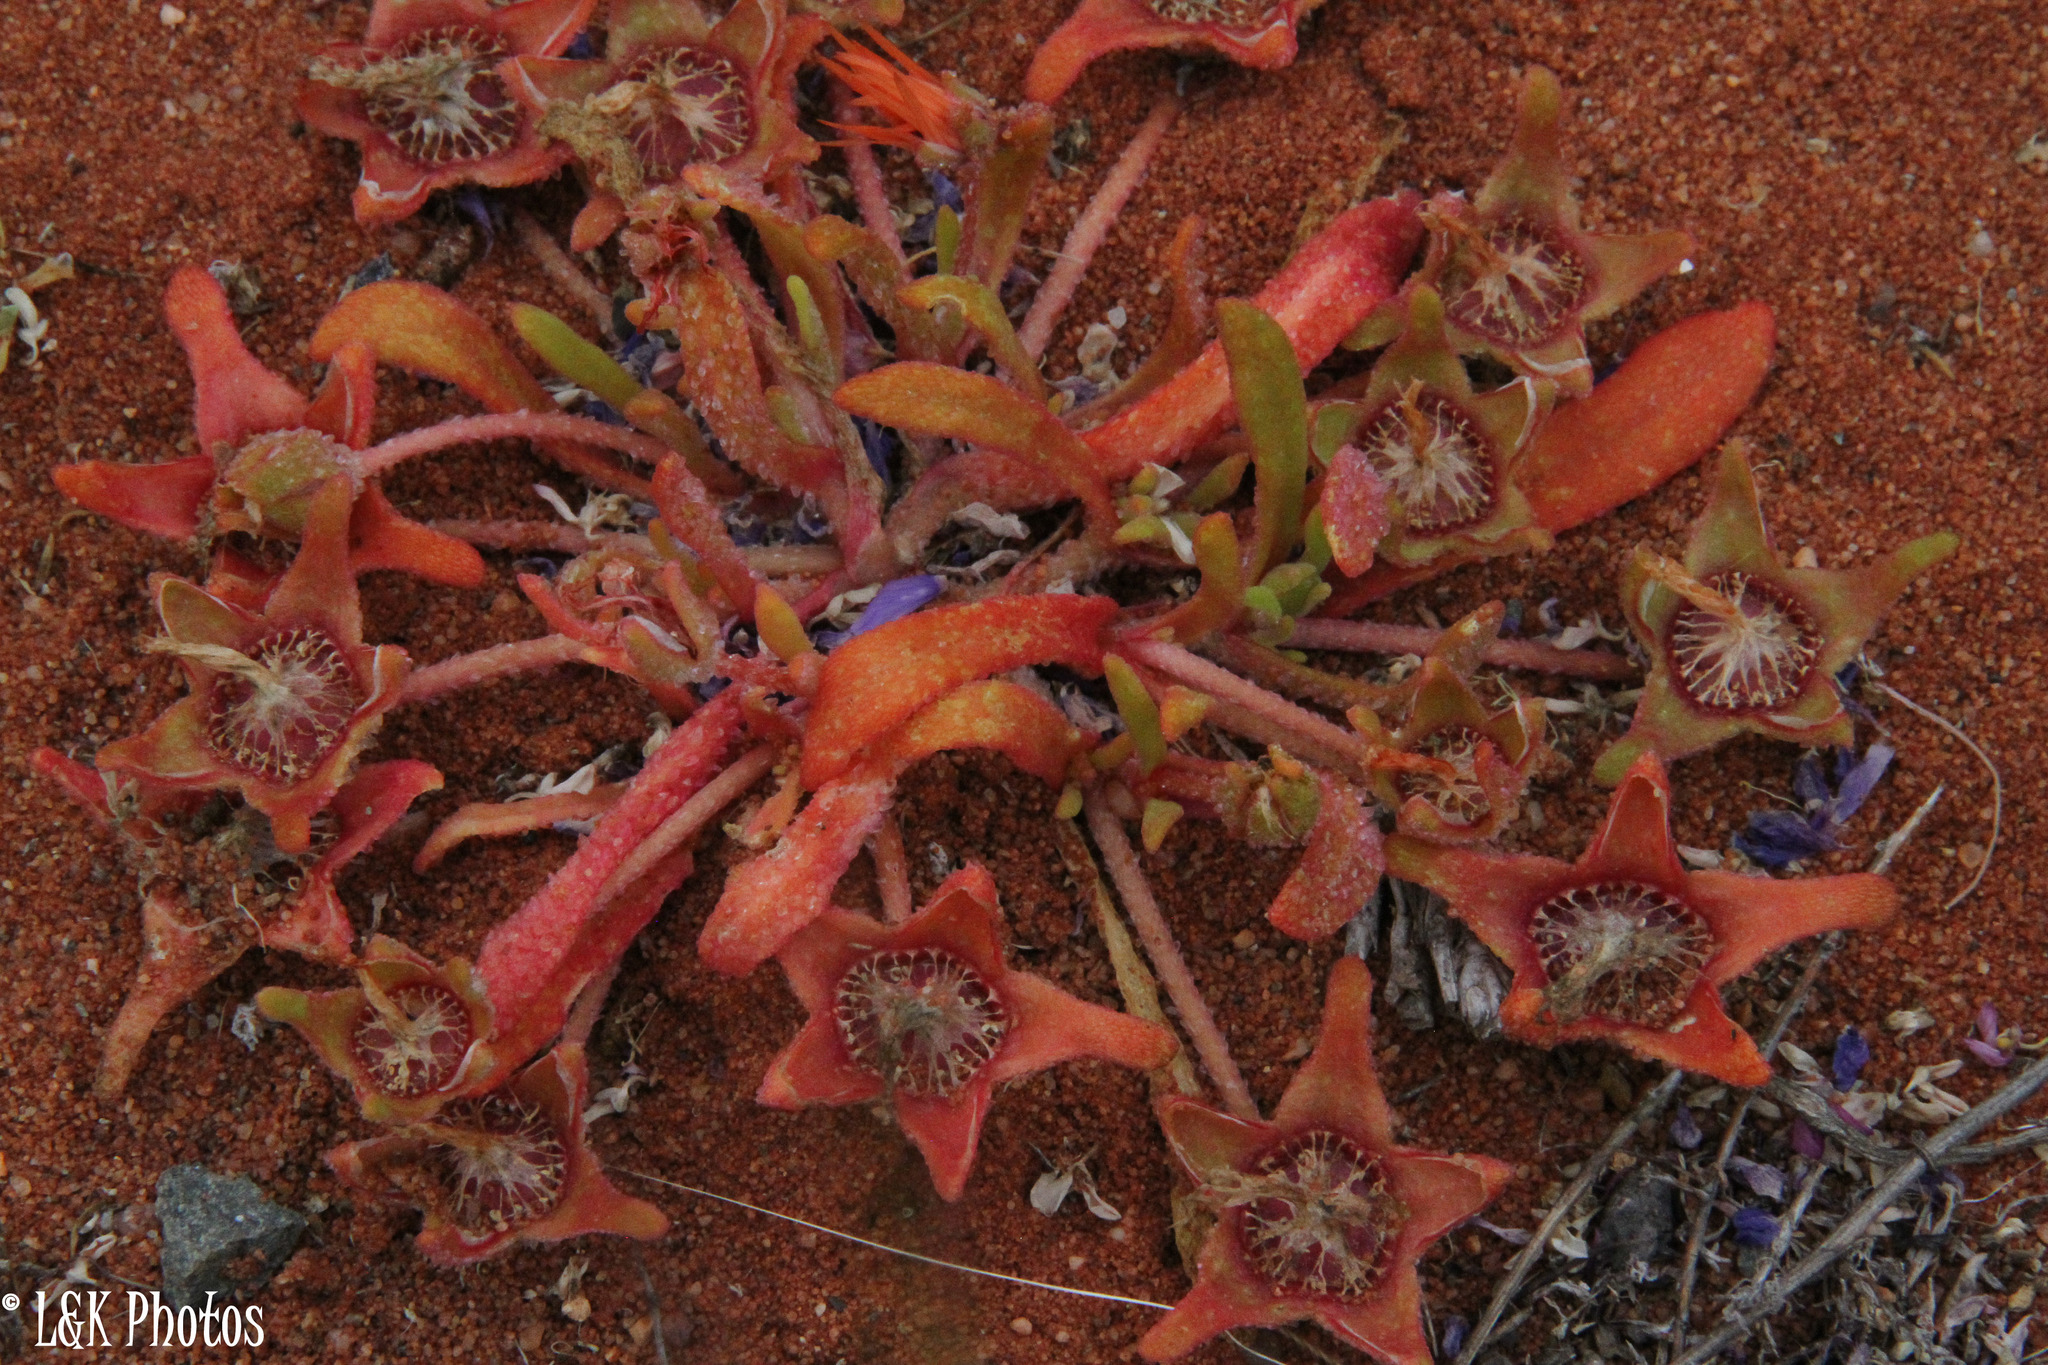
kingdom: Plantae
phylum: Tracheophyta
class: Magnoliopsida
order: Caryophyllales
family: Aizoaceae
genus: Cleretum
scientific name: Cleretum rourkei
